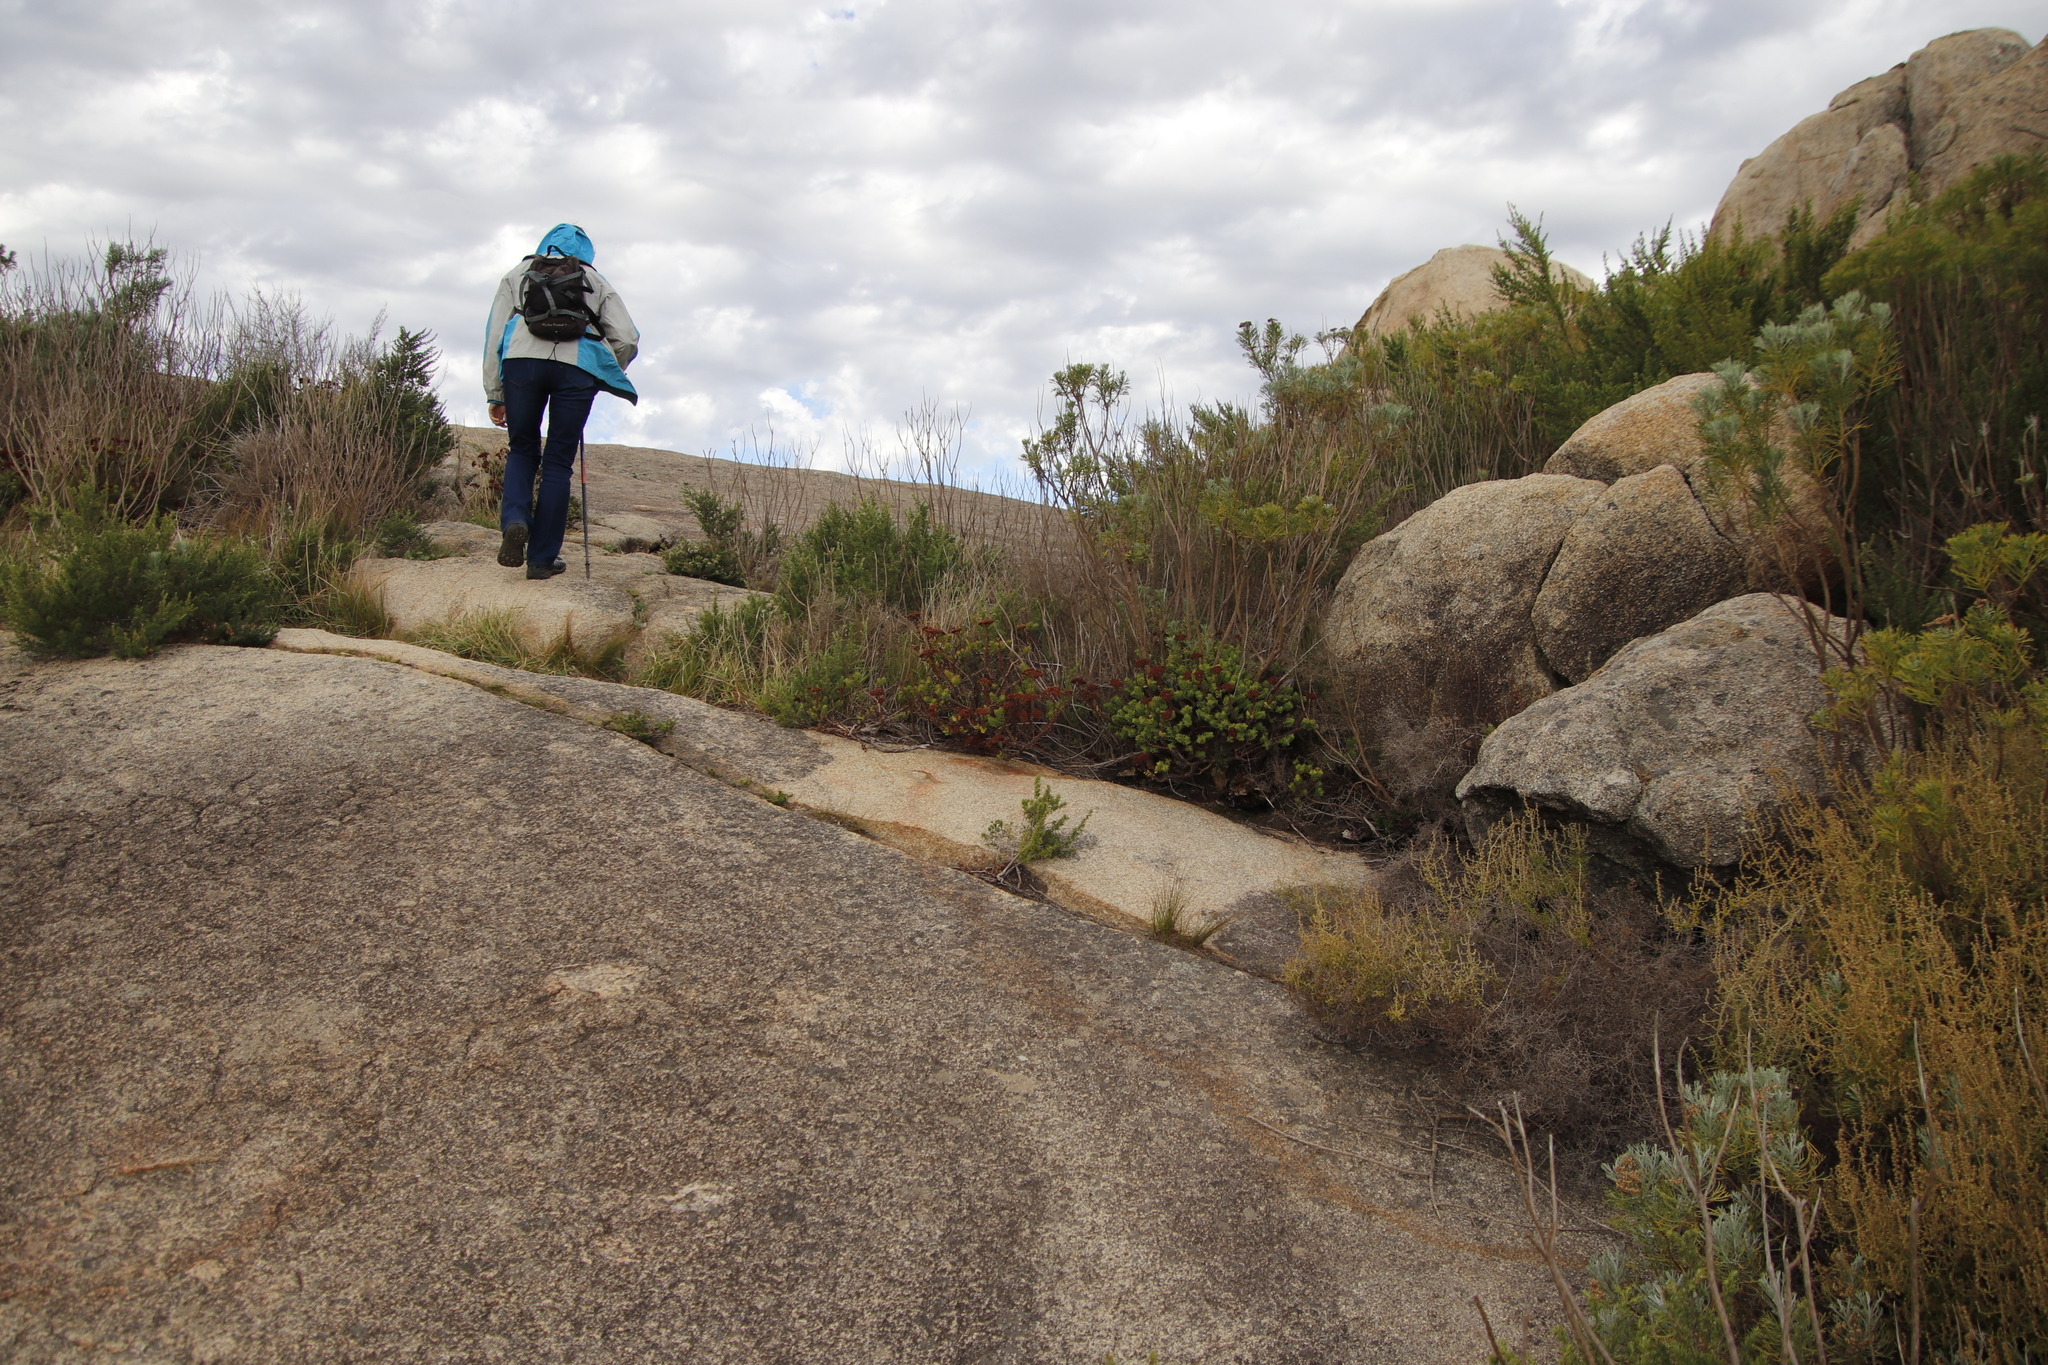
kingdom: Plantae
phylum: Tracheophyta
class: Magnoliopsida
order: Saxifragales
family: Crassulaceae
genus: Crassula
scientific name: Crassula undulata
